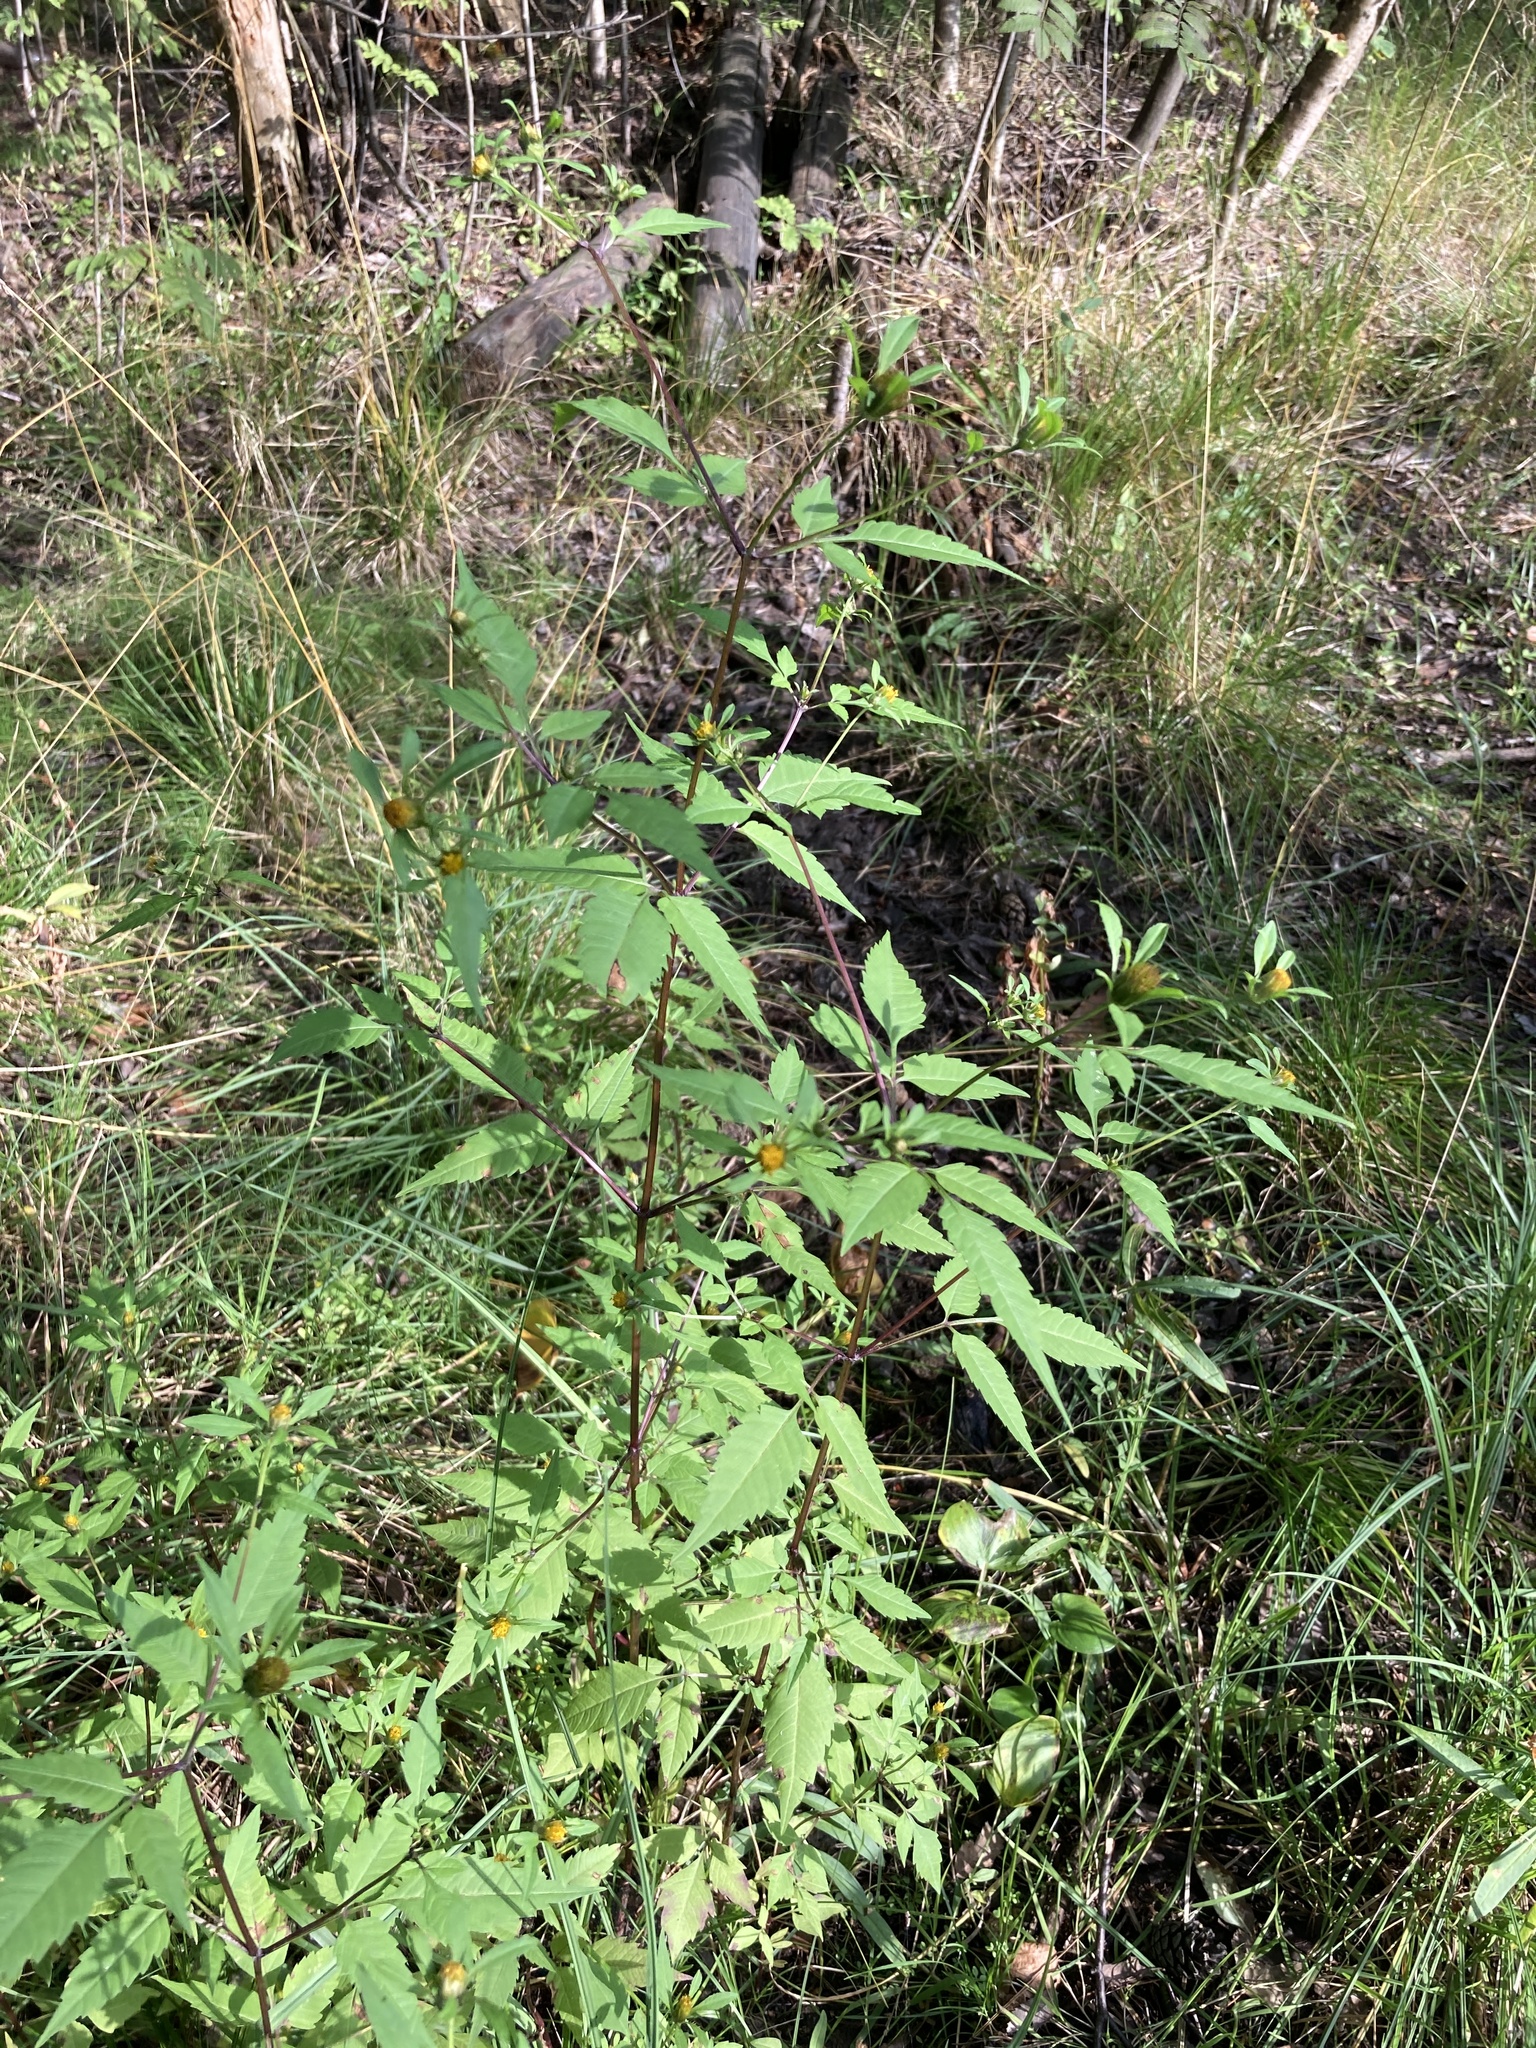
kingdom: Plantae
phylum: Tracheophyta
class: Magnoliopsida
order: Asterales
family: Asteraceae
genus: Bidens
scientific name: Bidens frondosa
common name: Beggarticks
